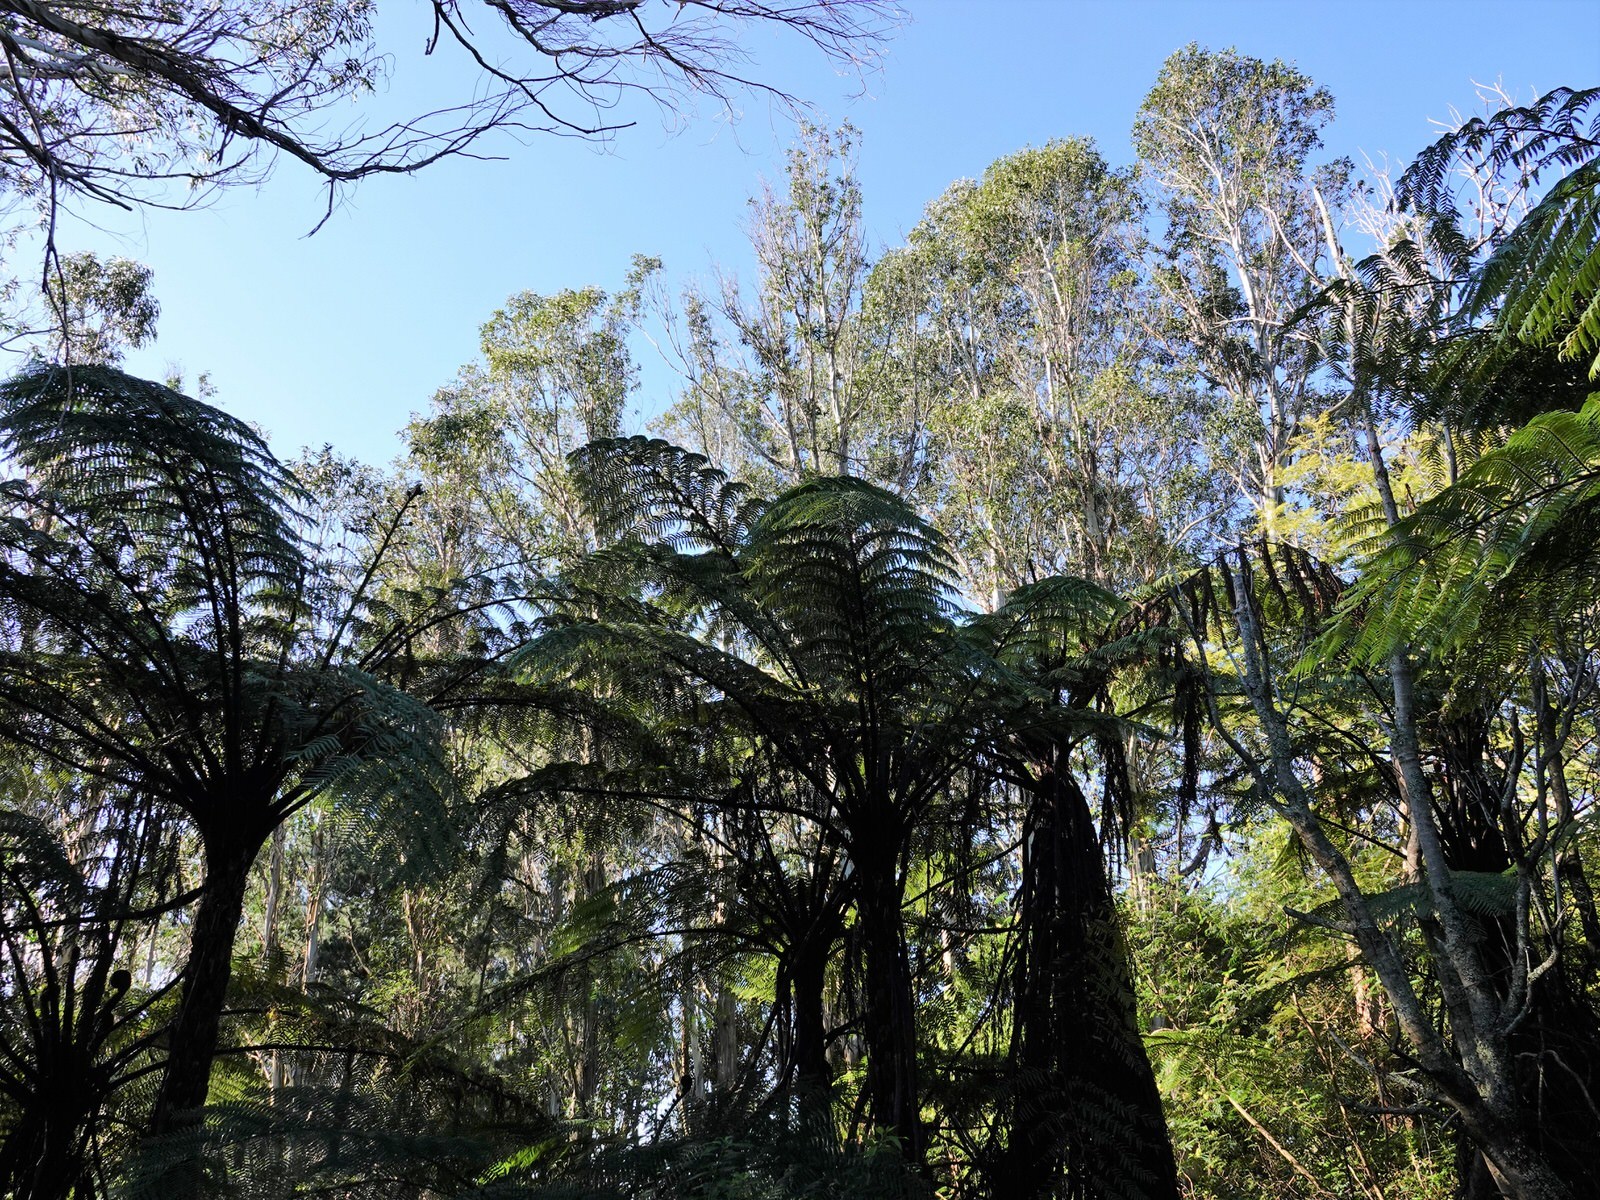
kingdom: Plantae
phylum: Tracheophyta
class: Polypodiopsida
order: Cyatheales
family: Cyatheaceae
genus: Sphaeropteris
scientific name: Sphaeropteris medullaris
